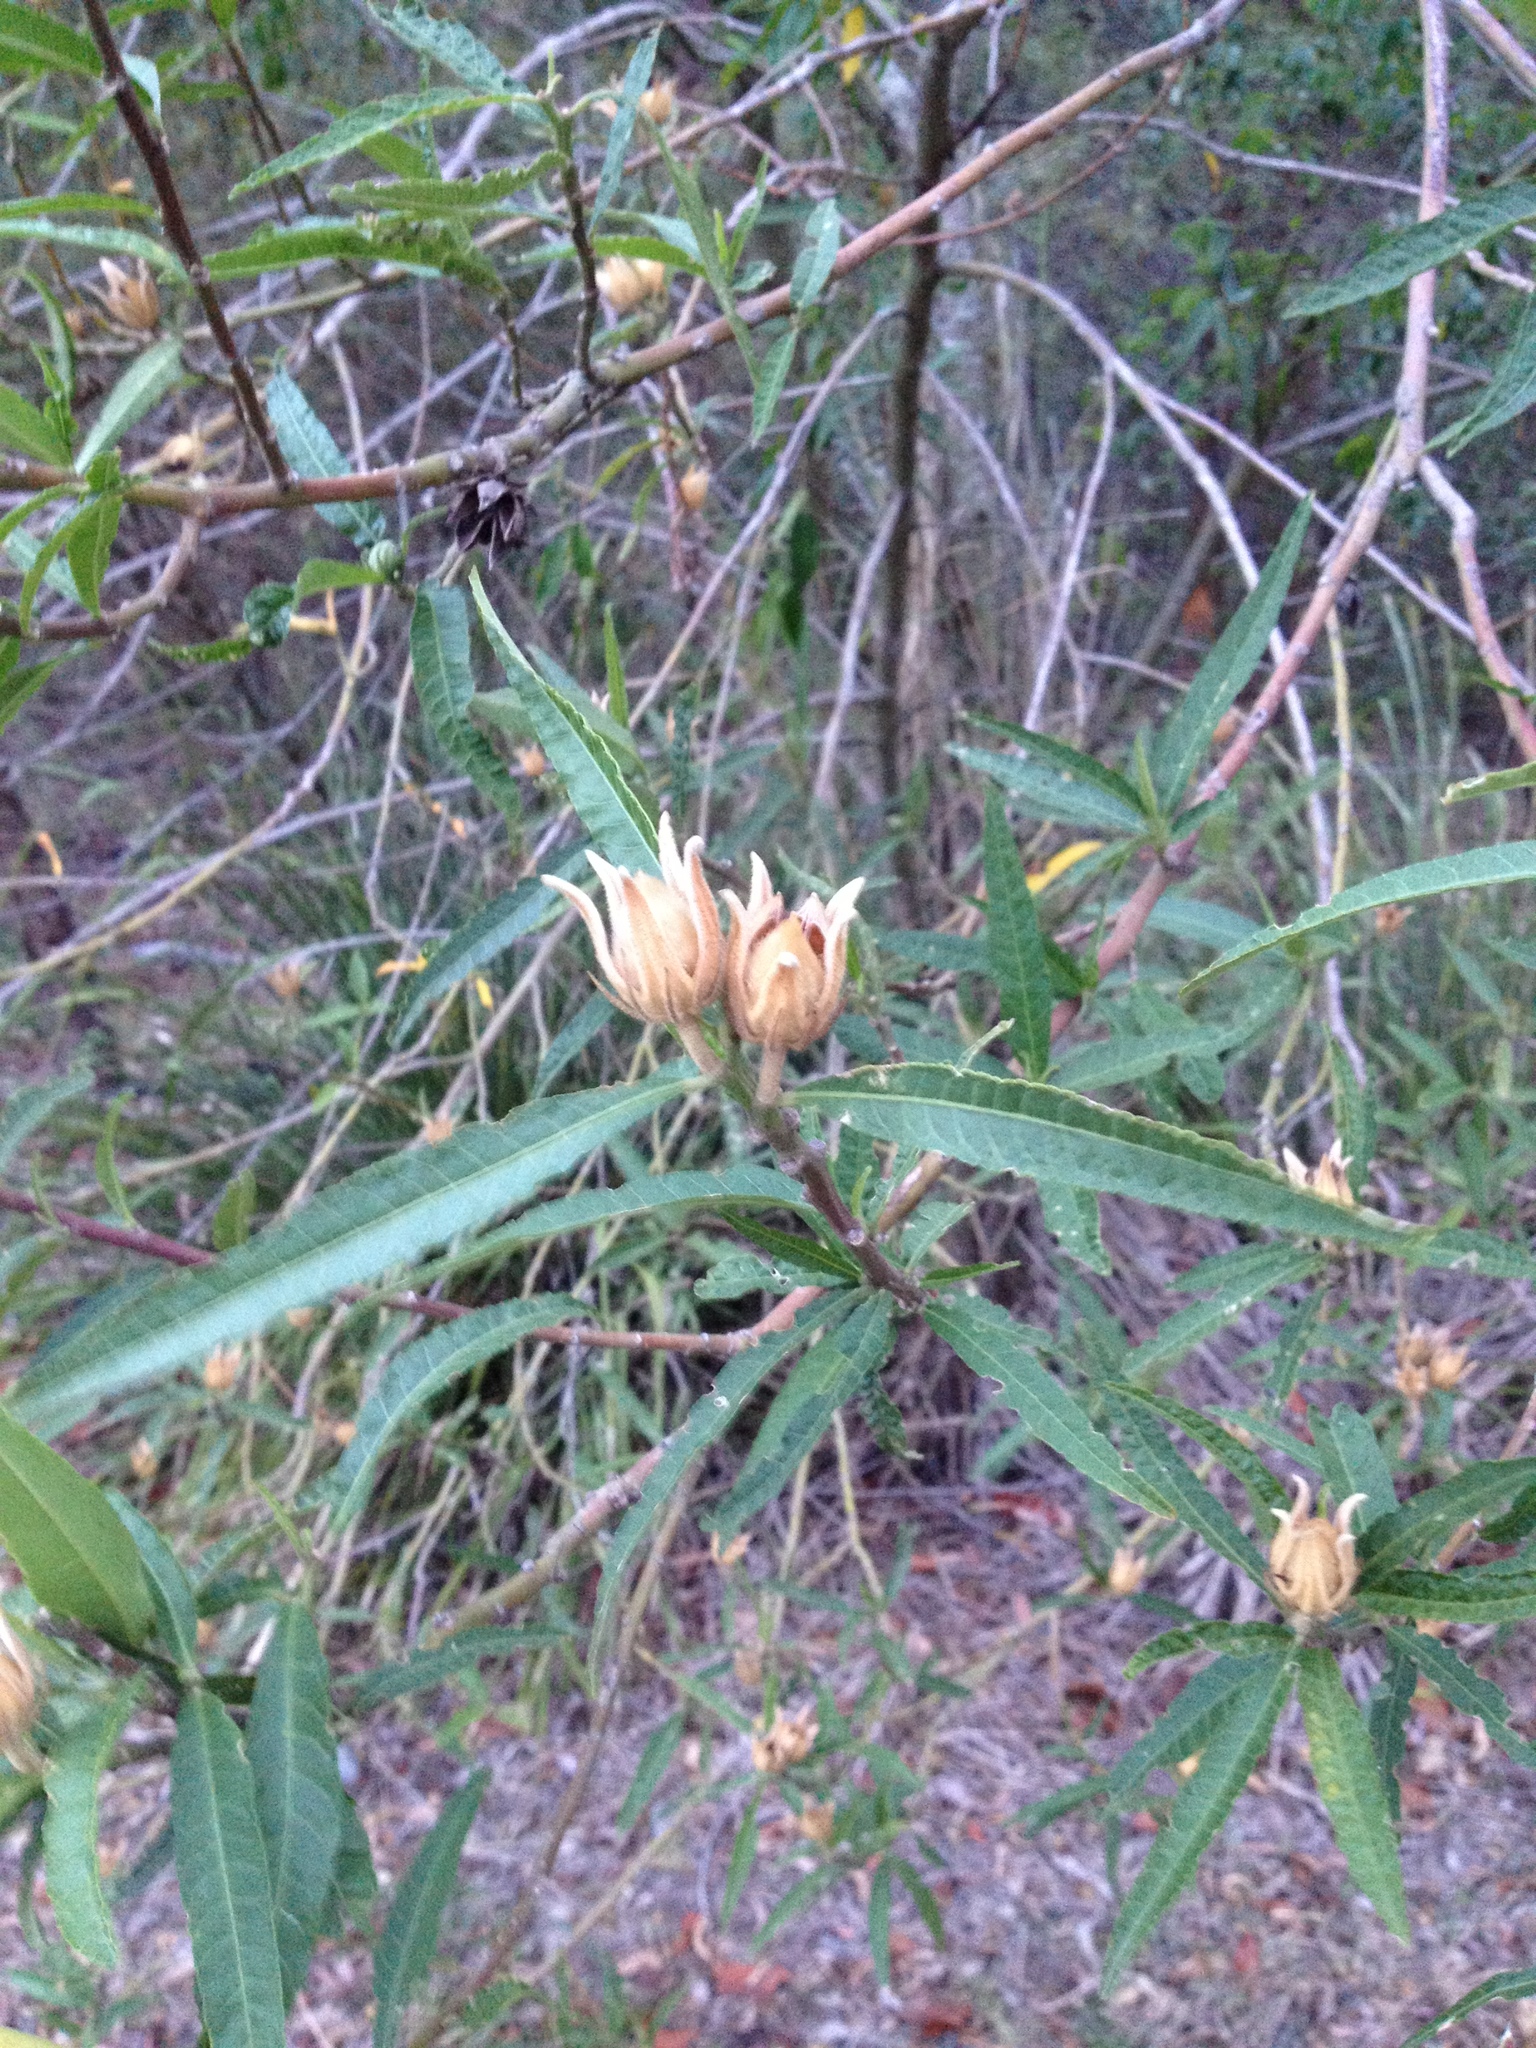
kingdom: Plantae
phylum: Tracheophyta
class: Magnoliopsida
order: Malvales
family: Malvaceae
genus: Hibiscus
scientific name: Hibiscus heterophyllus
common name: Queensland-sorrel
